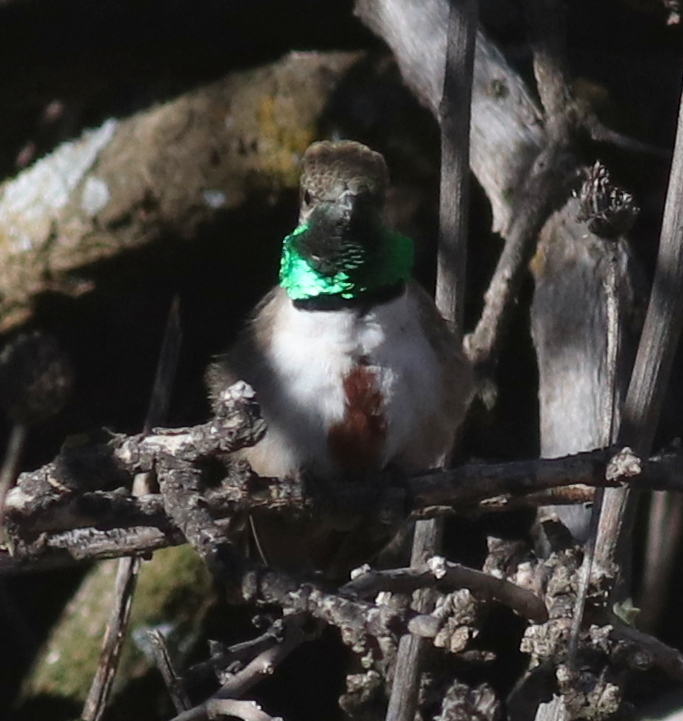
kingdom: Animalia
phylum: Chordata
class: Aves
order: Apodiformes
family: Trochilidae
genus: Oreotrochilus
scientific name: Oreotrochilus estella
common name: Andean hillstar
